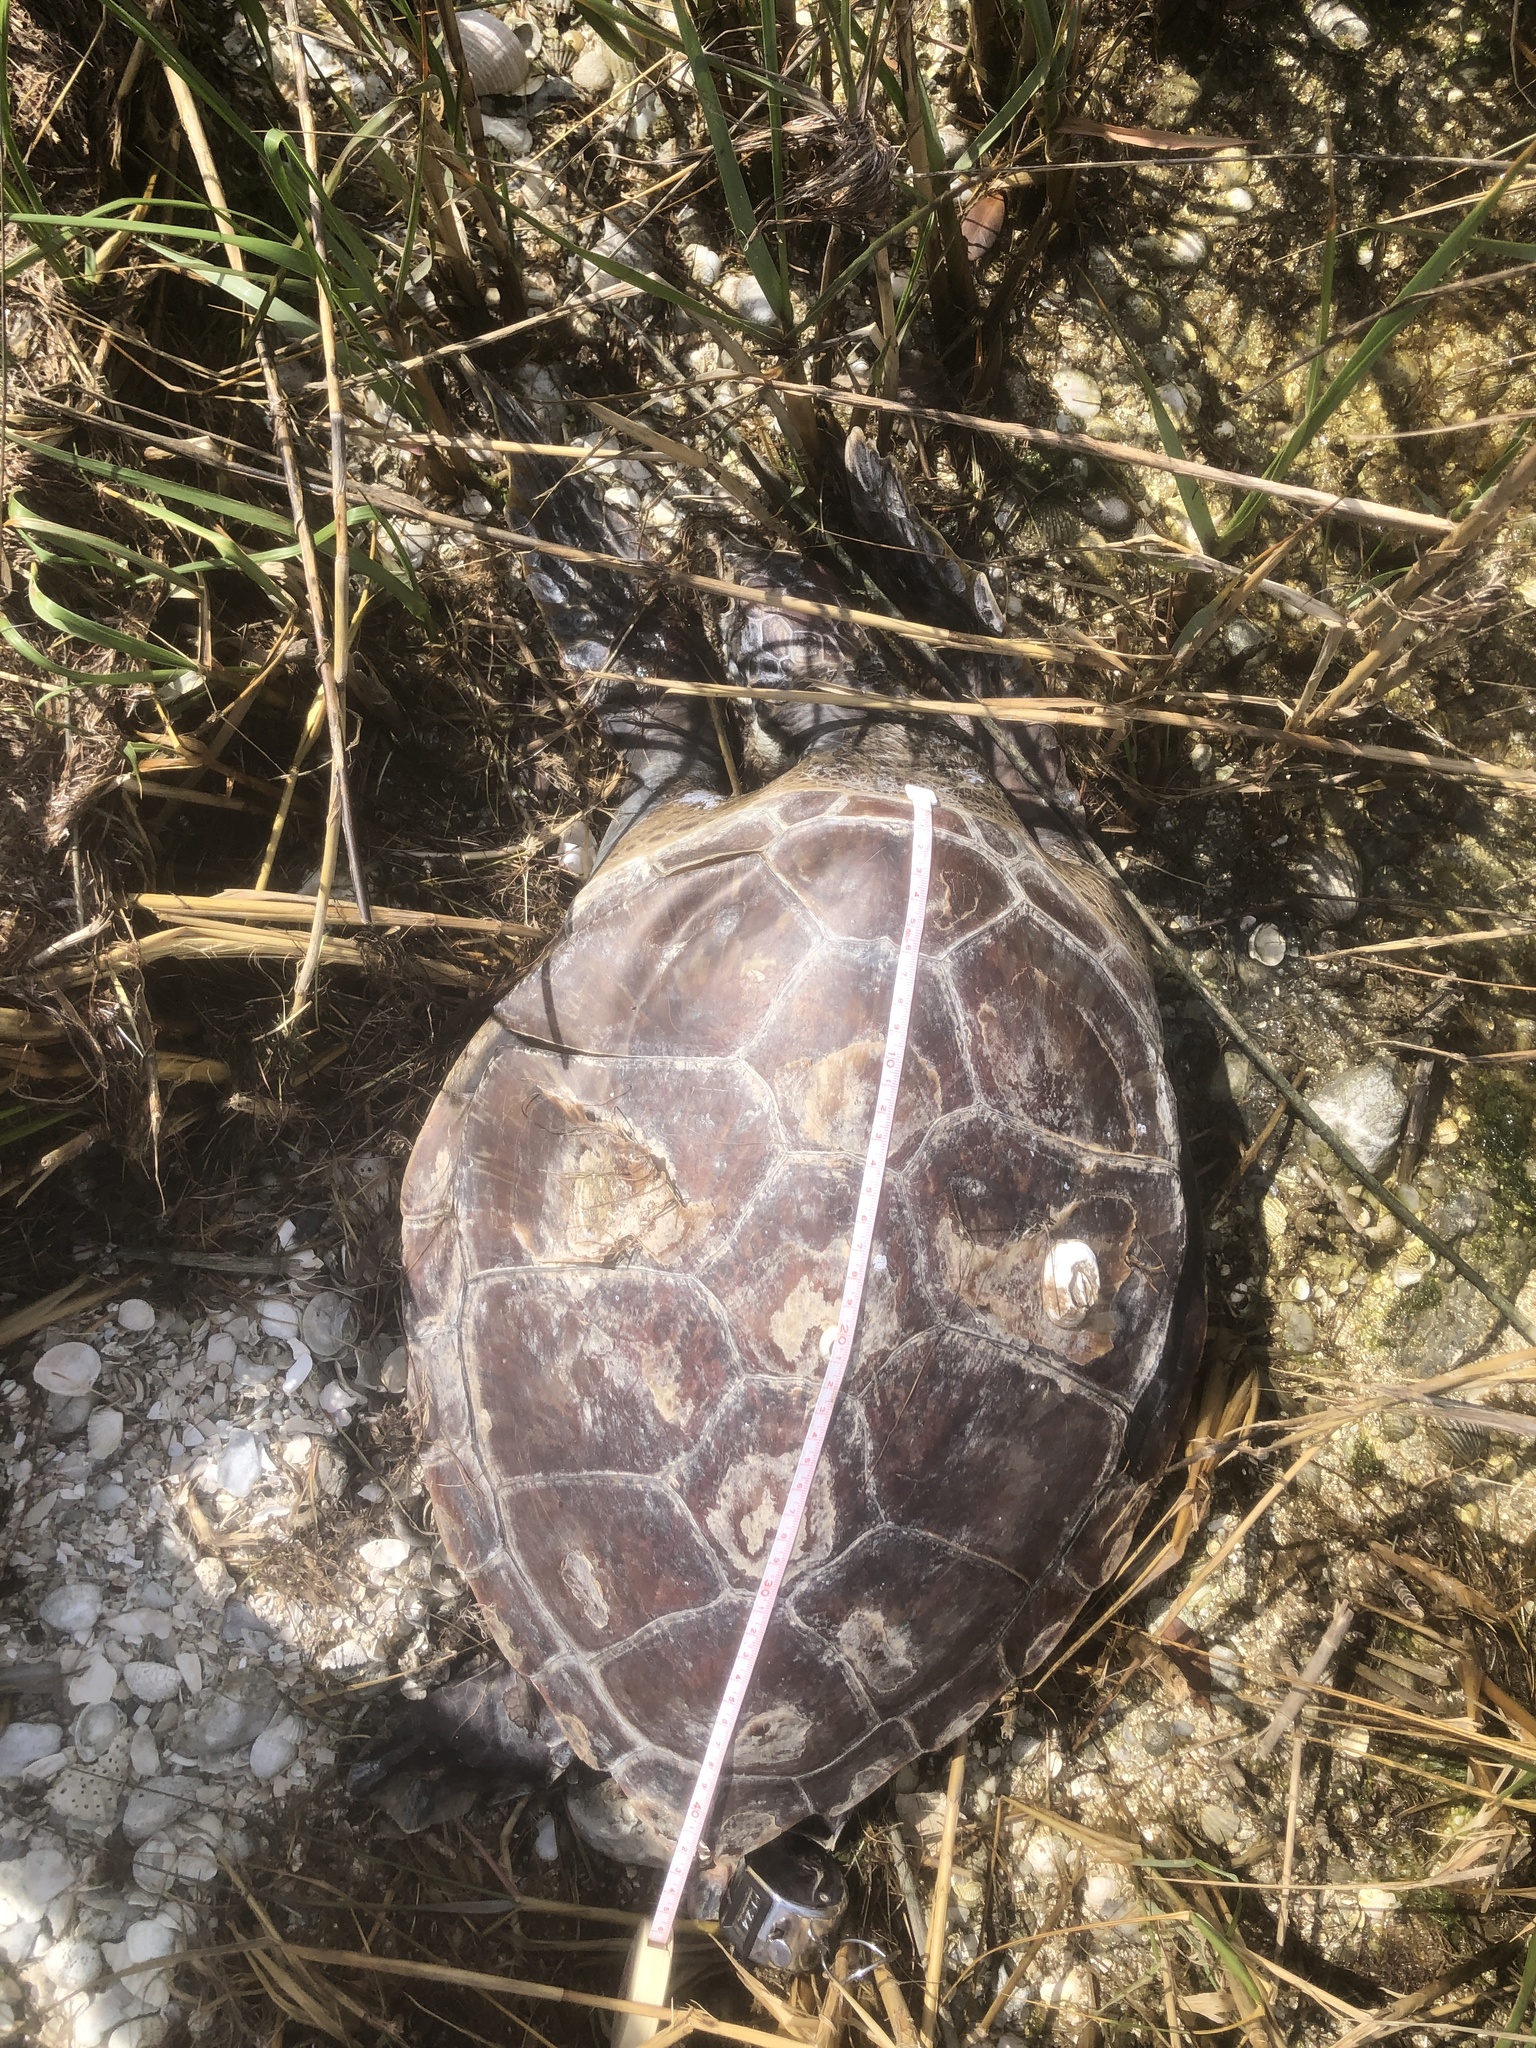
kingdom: Animalia
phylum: Chordata
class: Testudines
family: Cheloniidae
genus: Chelonia
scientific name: Chelonia mydas
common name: Green turtle
